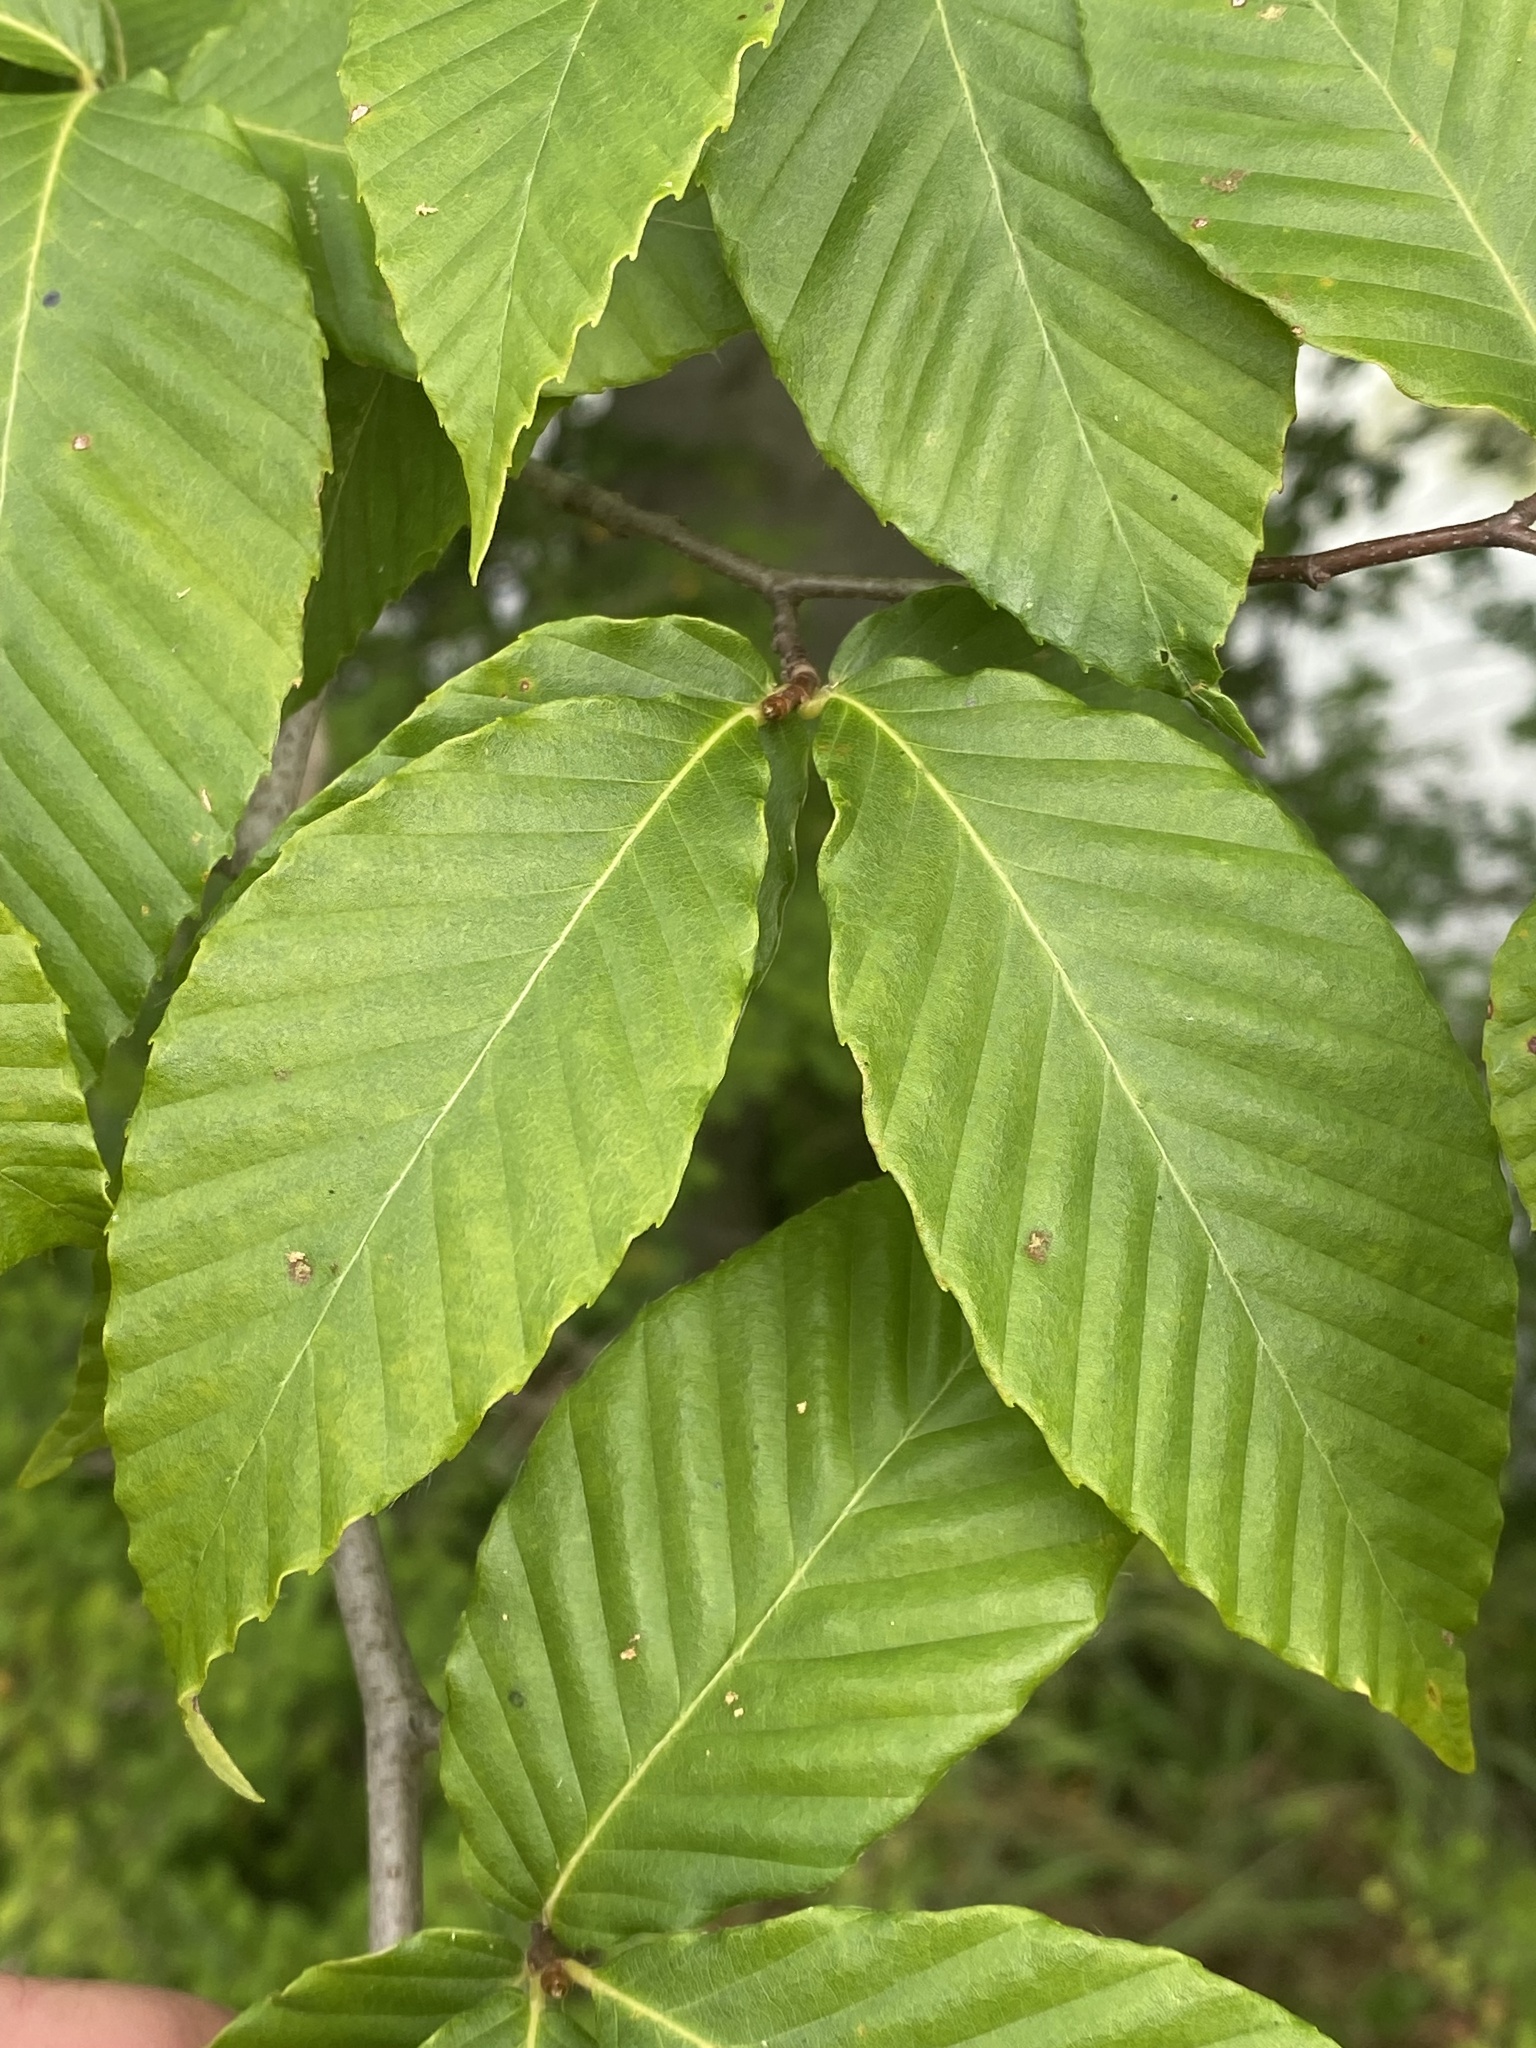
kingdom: Plantae
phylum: Tracheophyta
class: Magnoliopsida
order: Fagales
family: Fagaceae
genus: Fagus
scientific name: Fagus grandifolia
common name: American beech
